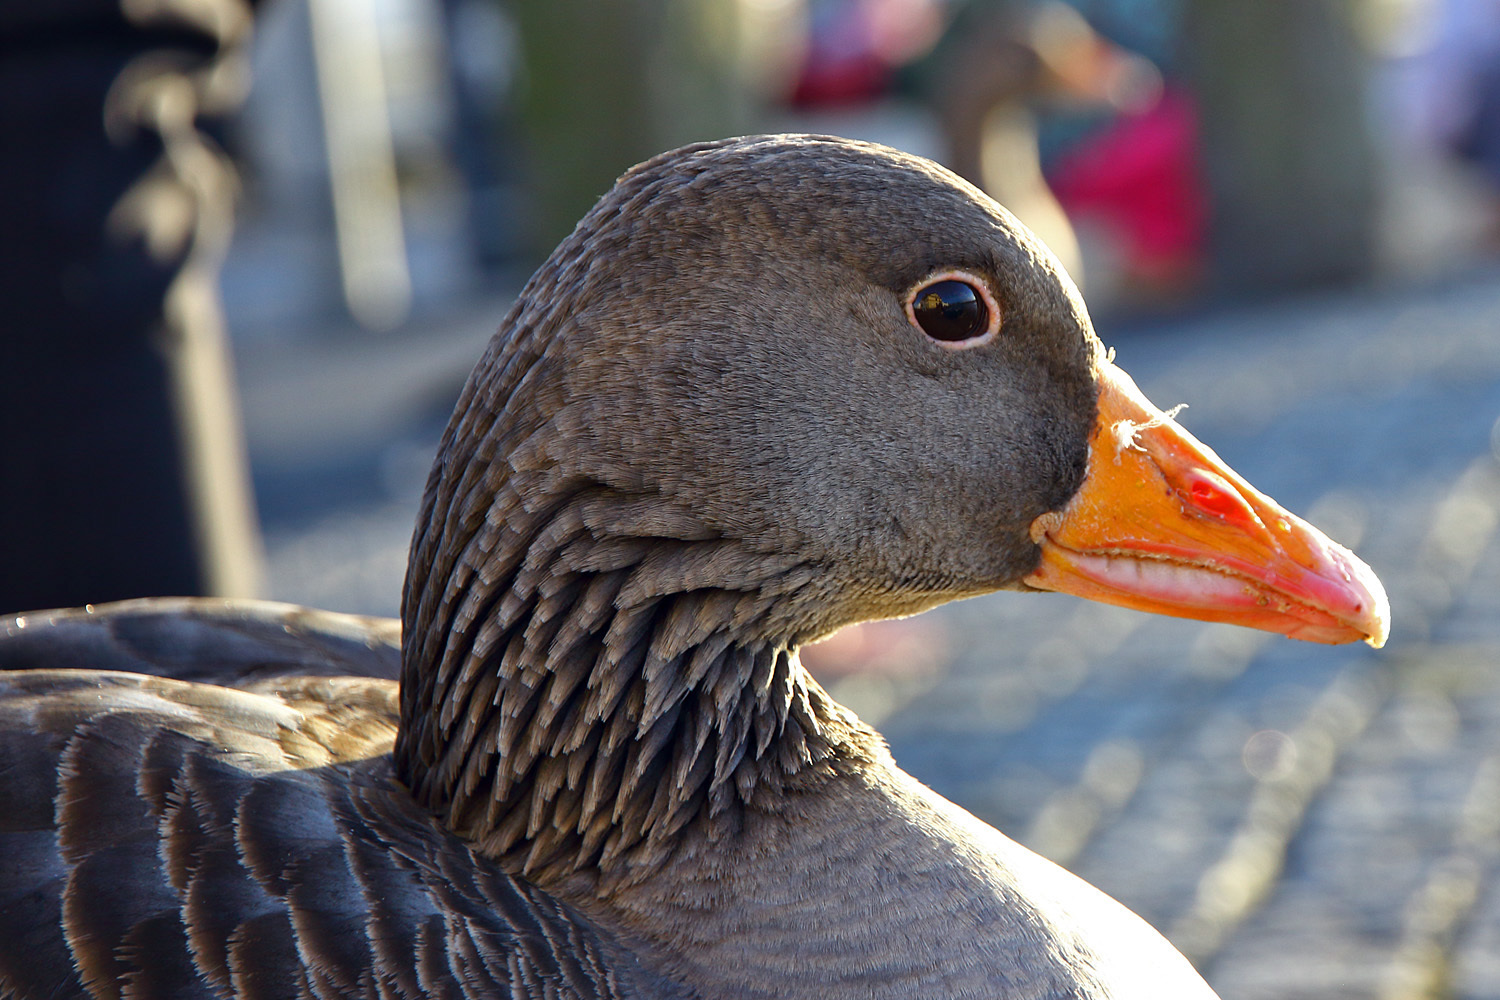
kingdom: Animalia
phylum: Chordata
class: Aves
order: Anseriformes
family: Anatidae
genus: Anser
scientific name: Anser anser
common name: Greylag goose
